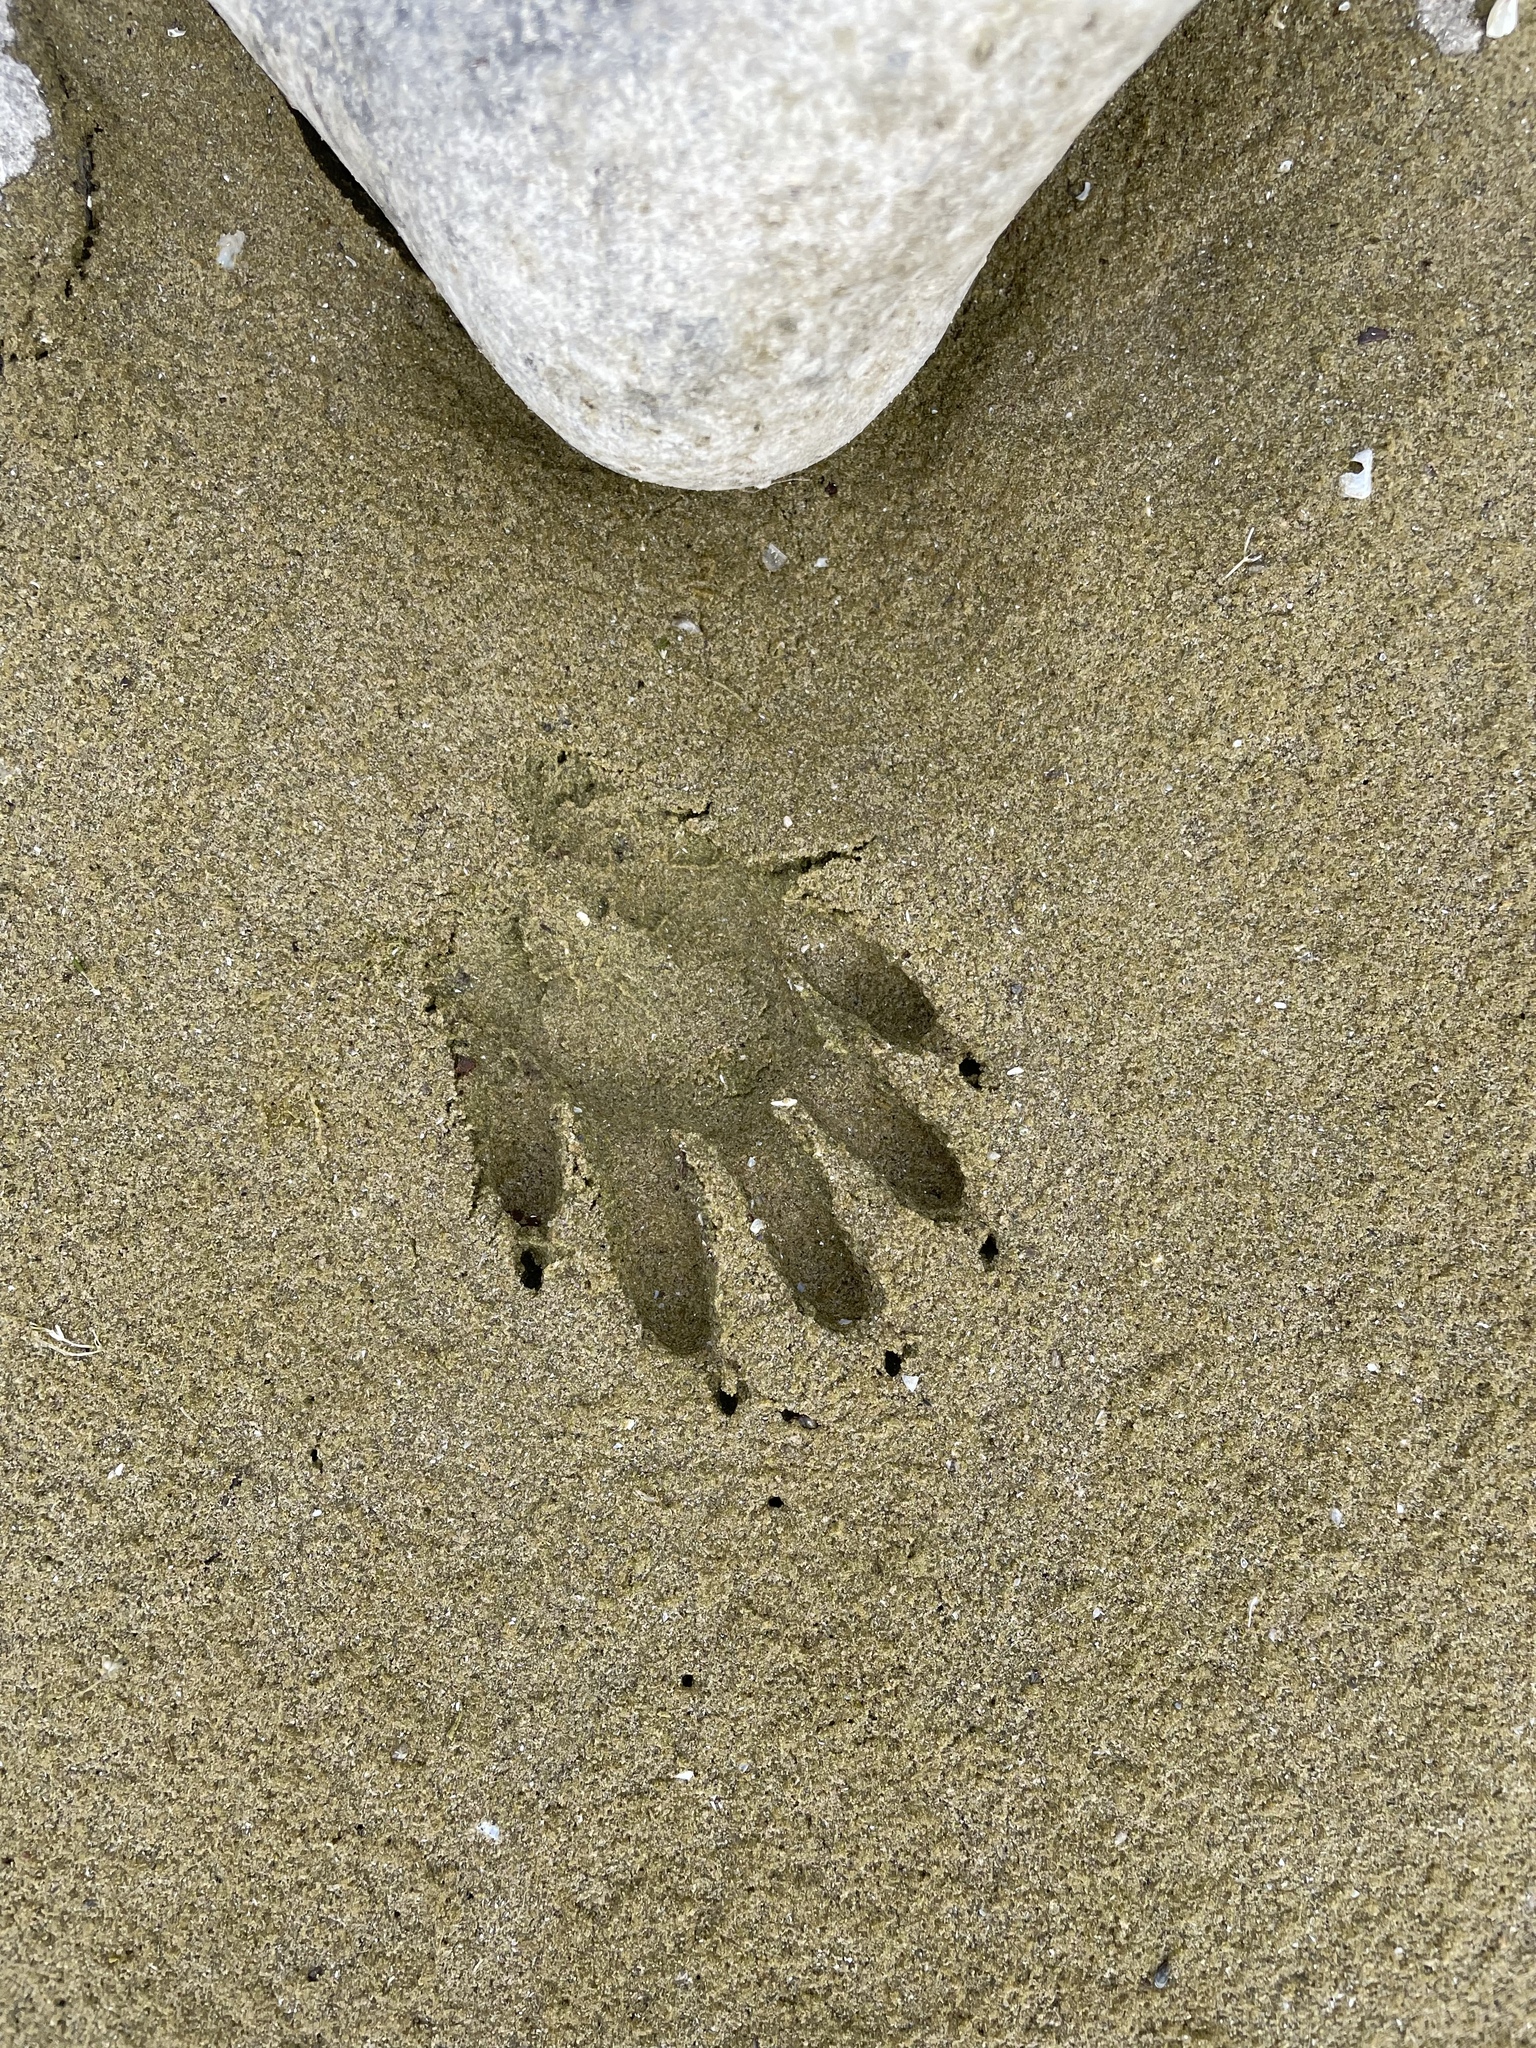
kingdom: Animalia
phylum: Chordata
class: Mammalia
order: Carnivora
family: Procyonidae
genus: Procyon
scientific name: Procyon lotor
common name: Raccoon
